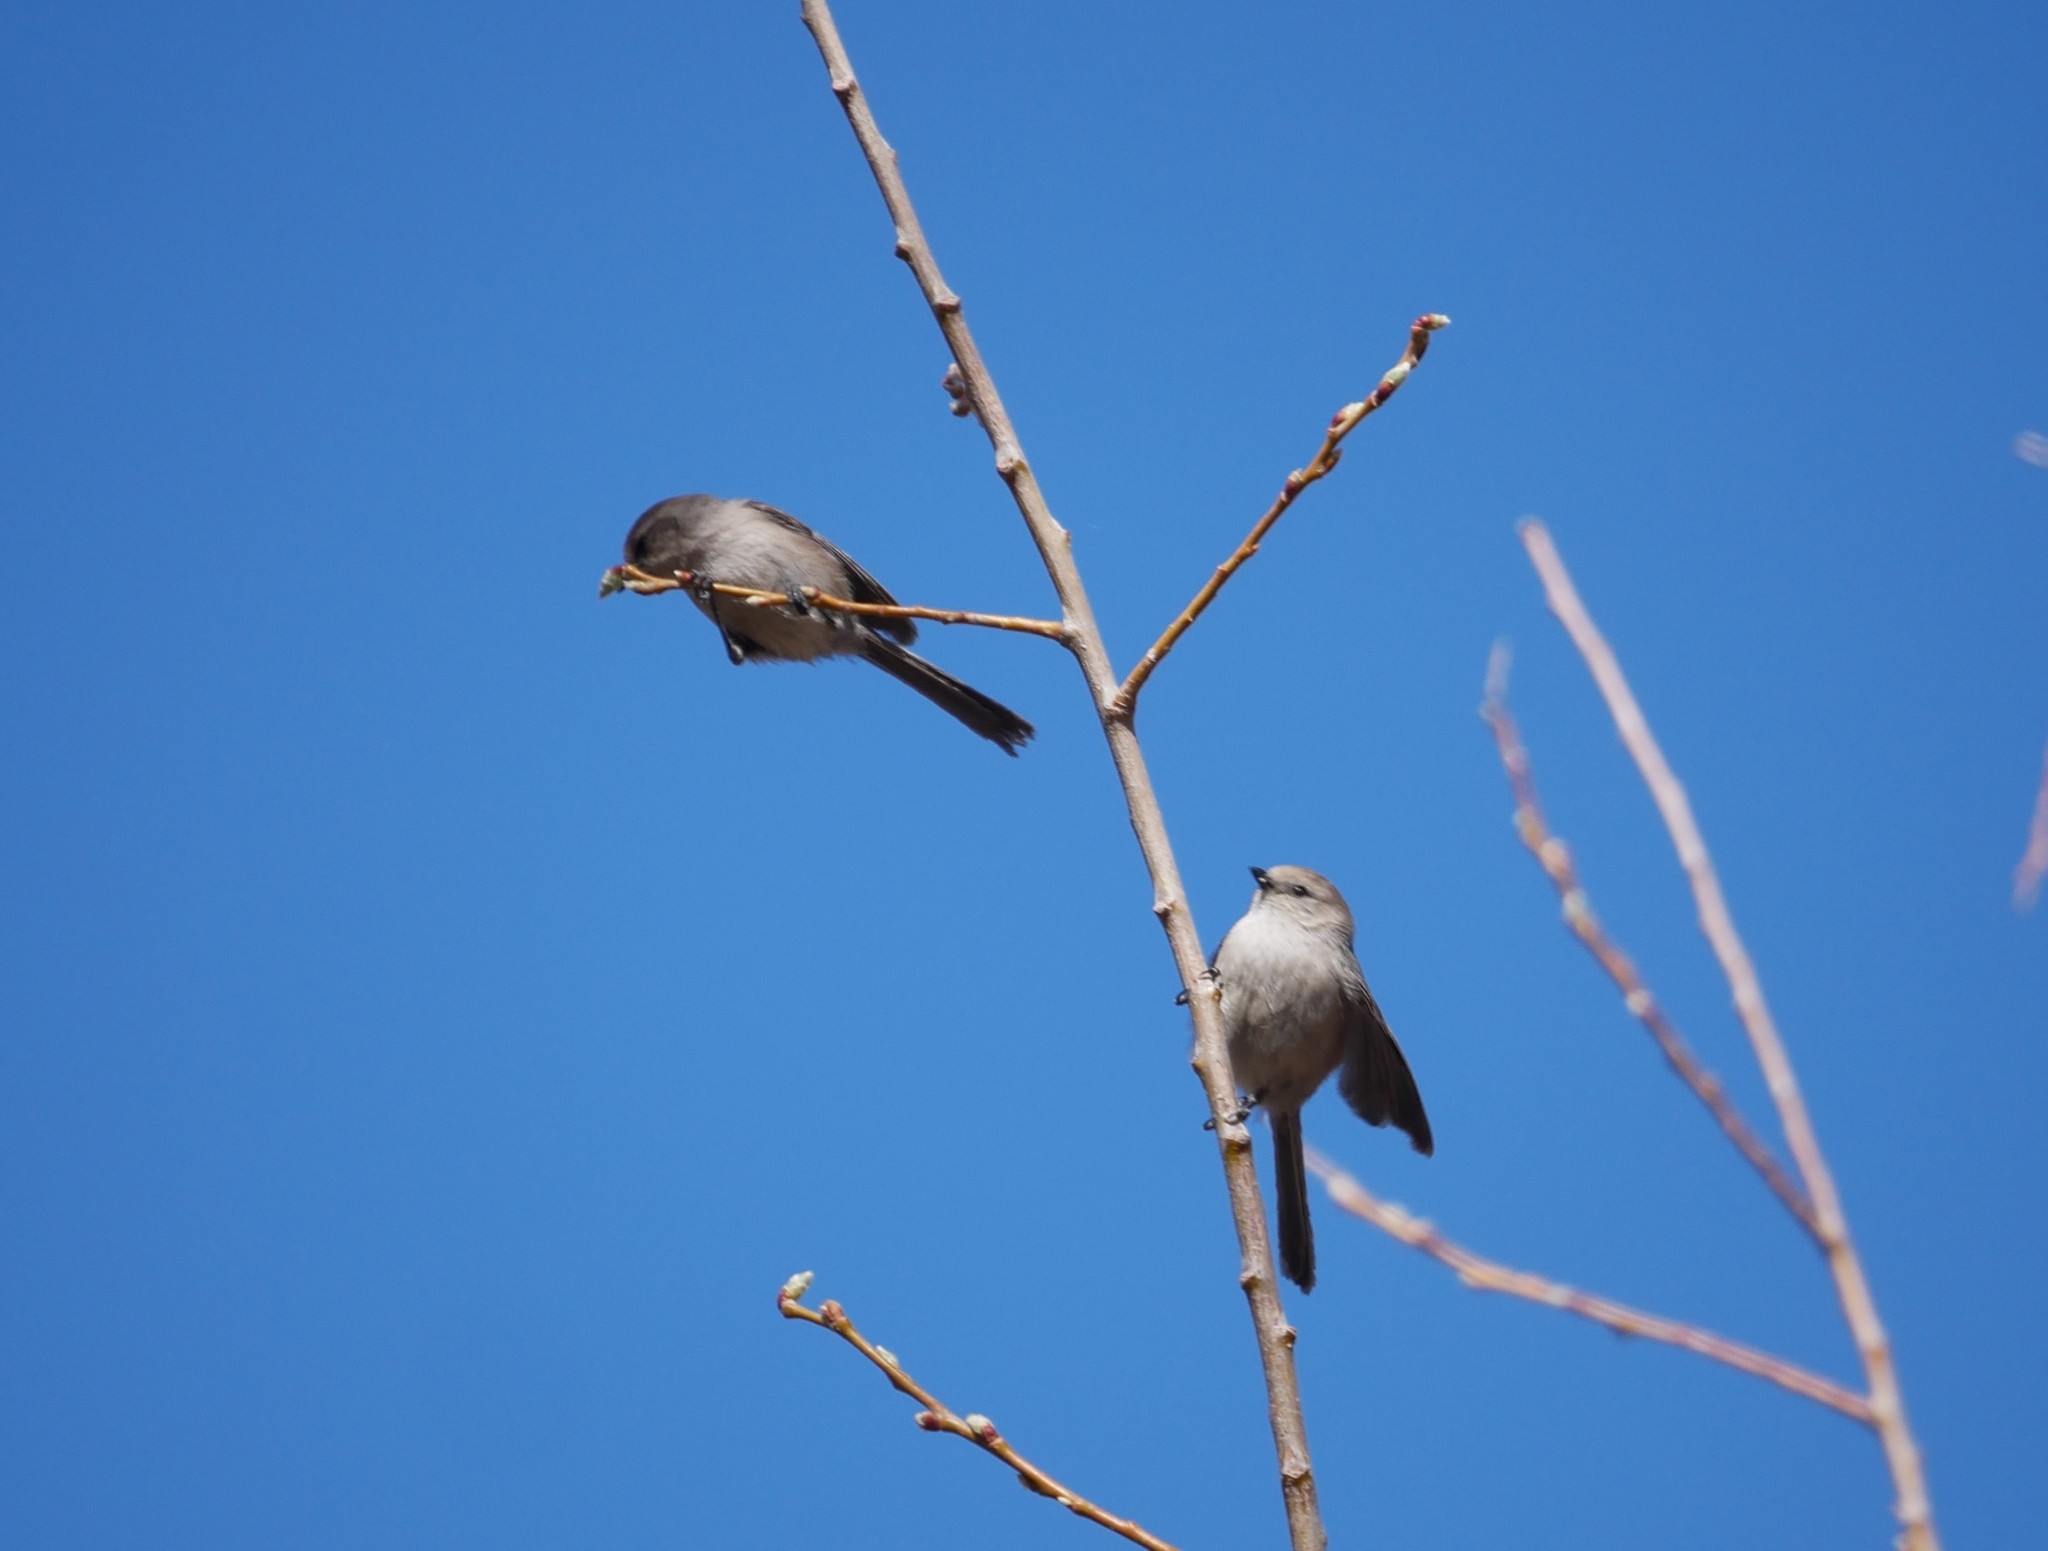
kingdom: Animalia
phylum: Chordata
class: Aves
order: Passeriformes
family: Aegithalidae
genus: Psaltriparus
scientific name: Psaltriparus minimus
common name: American bushtit
